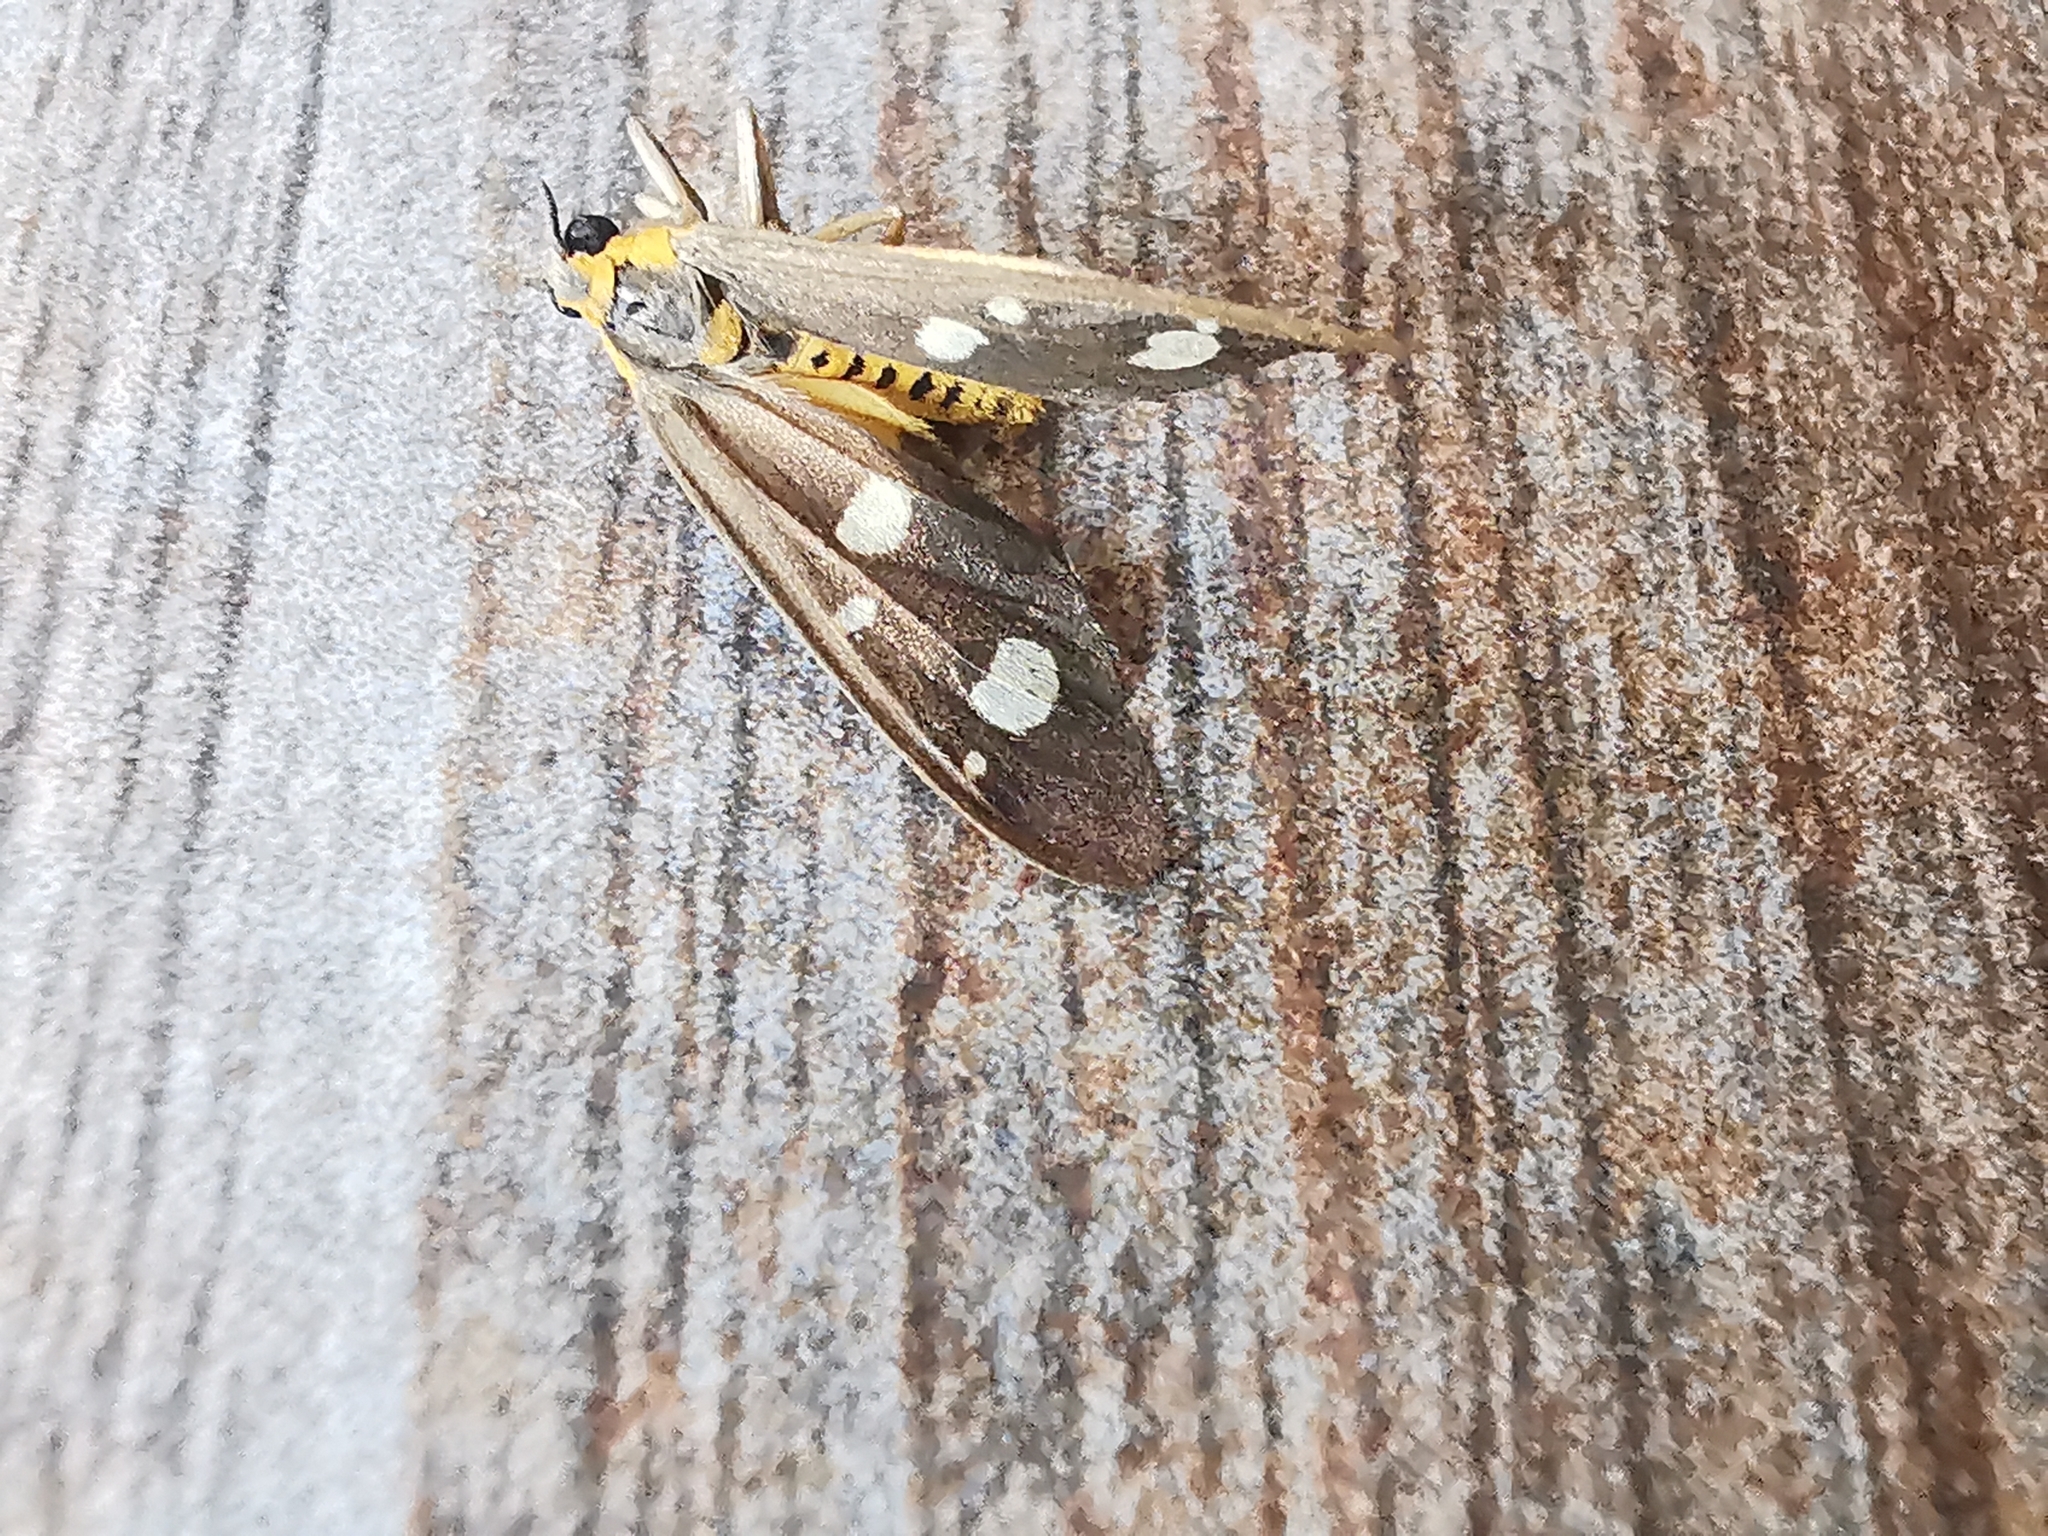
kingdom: Animalia
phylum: Arthropoda
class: Insecta
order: Lepidoptera
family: Erebidae
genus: Dysauxes
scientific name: Dysauxes punctata
